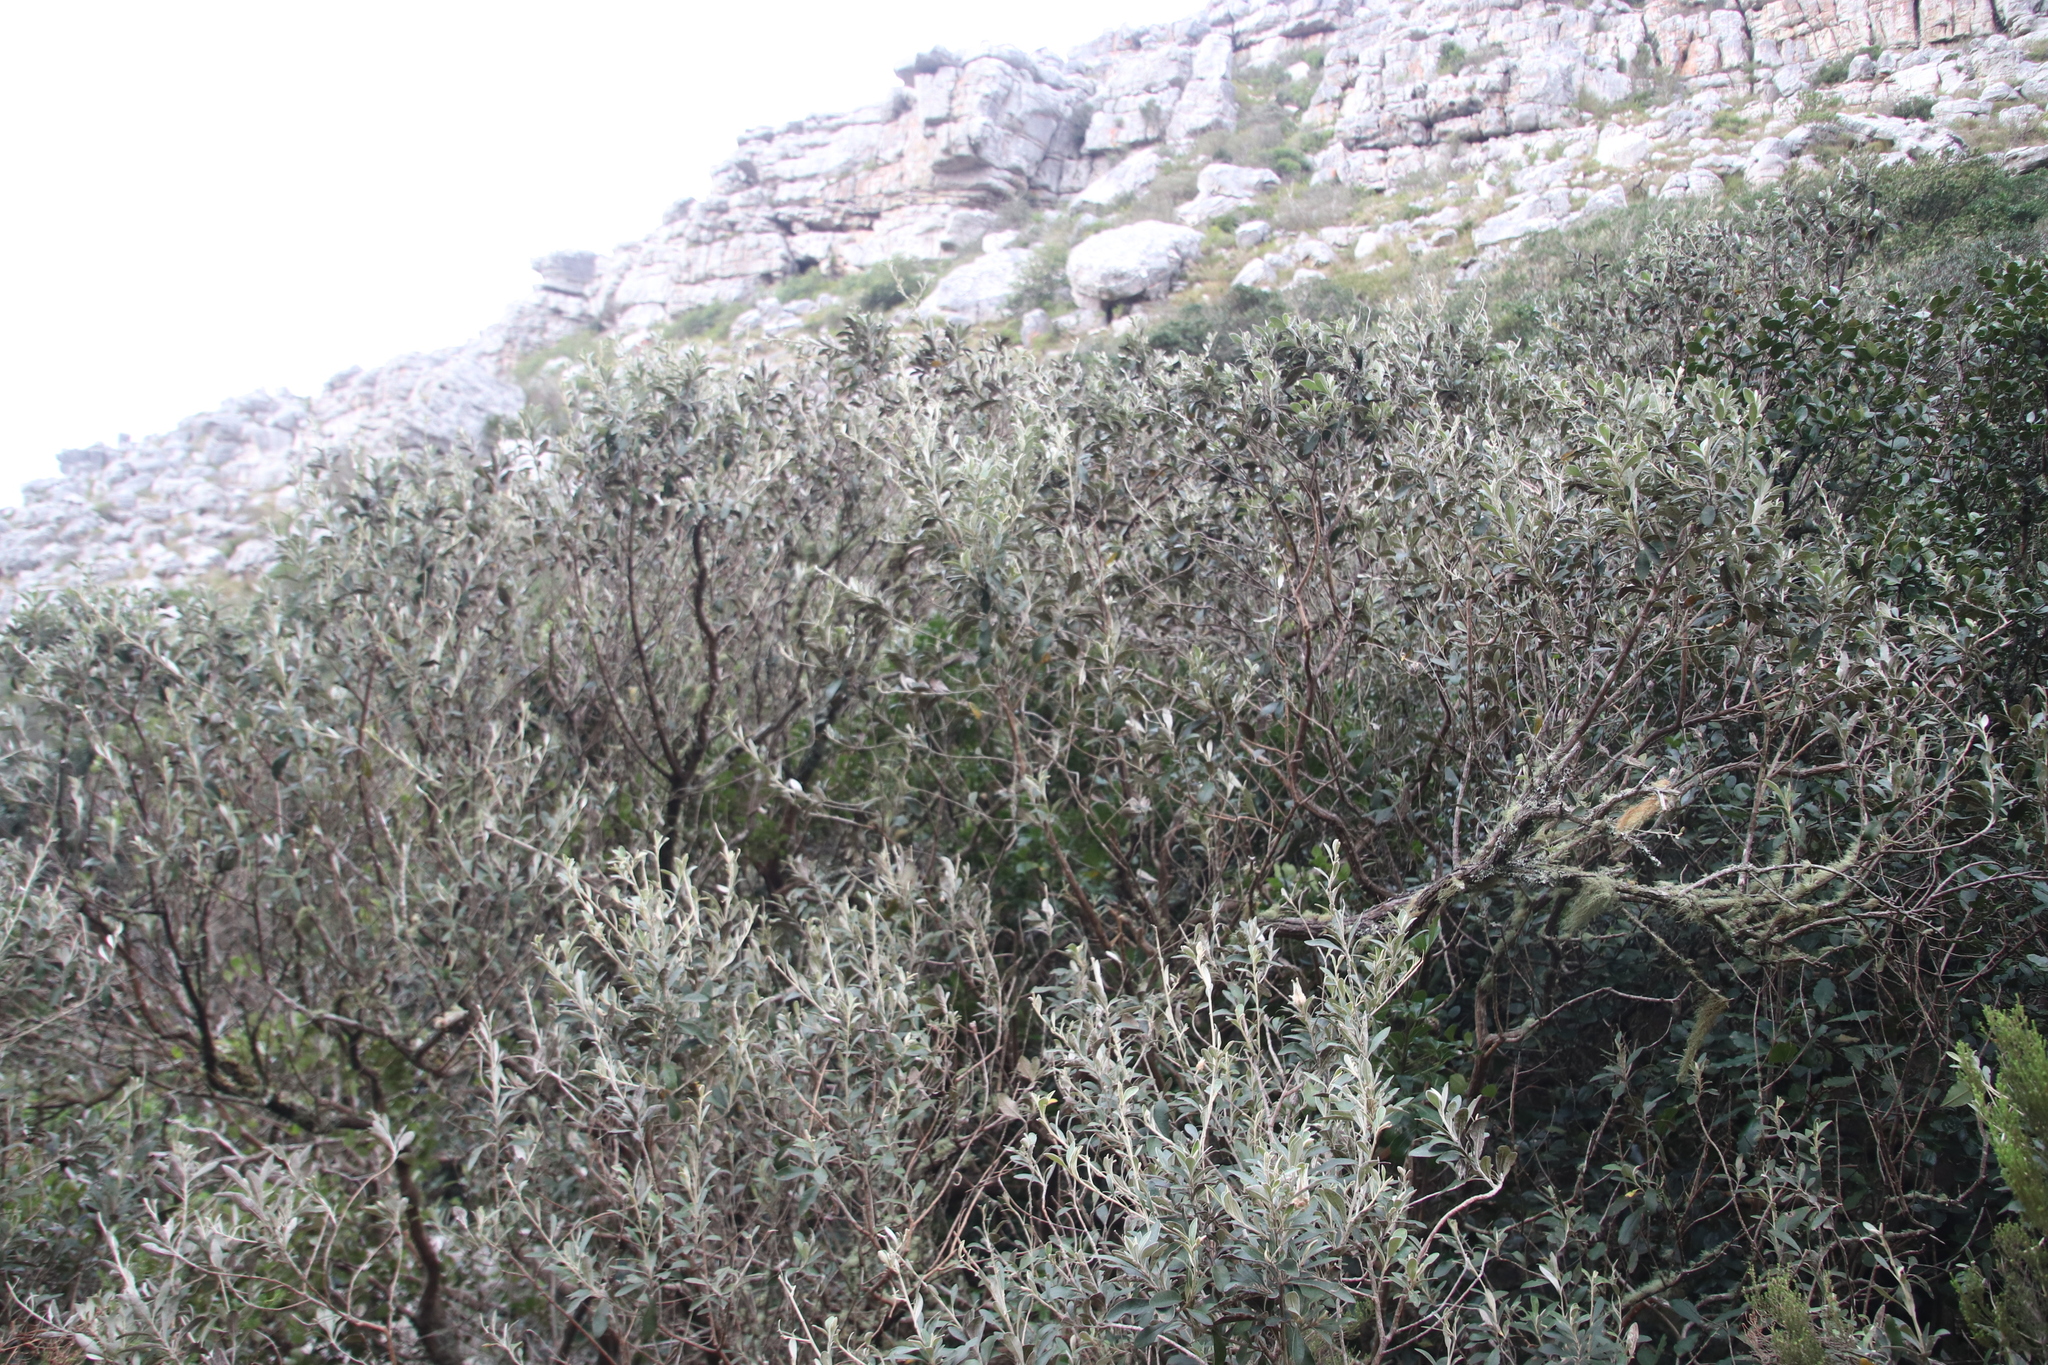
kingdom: Plantae
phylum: Tracheophyta
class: Magnoliopsida
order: Asterales
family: Asteraceae
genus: Tarchonanthus
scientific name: Tarchonanthus littoralis
